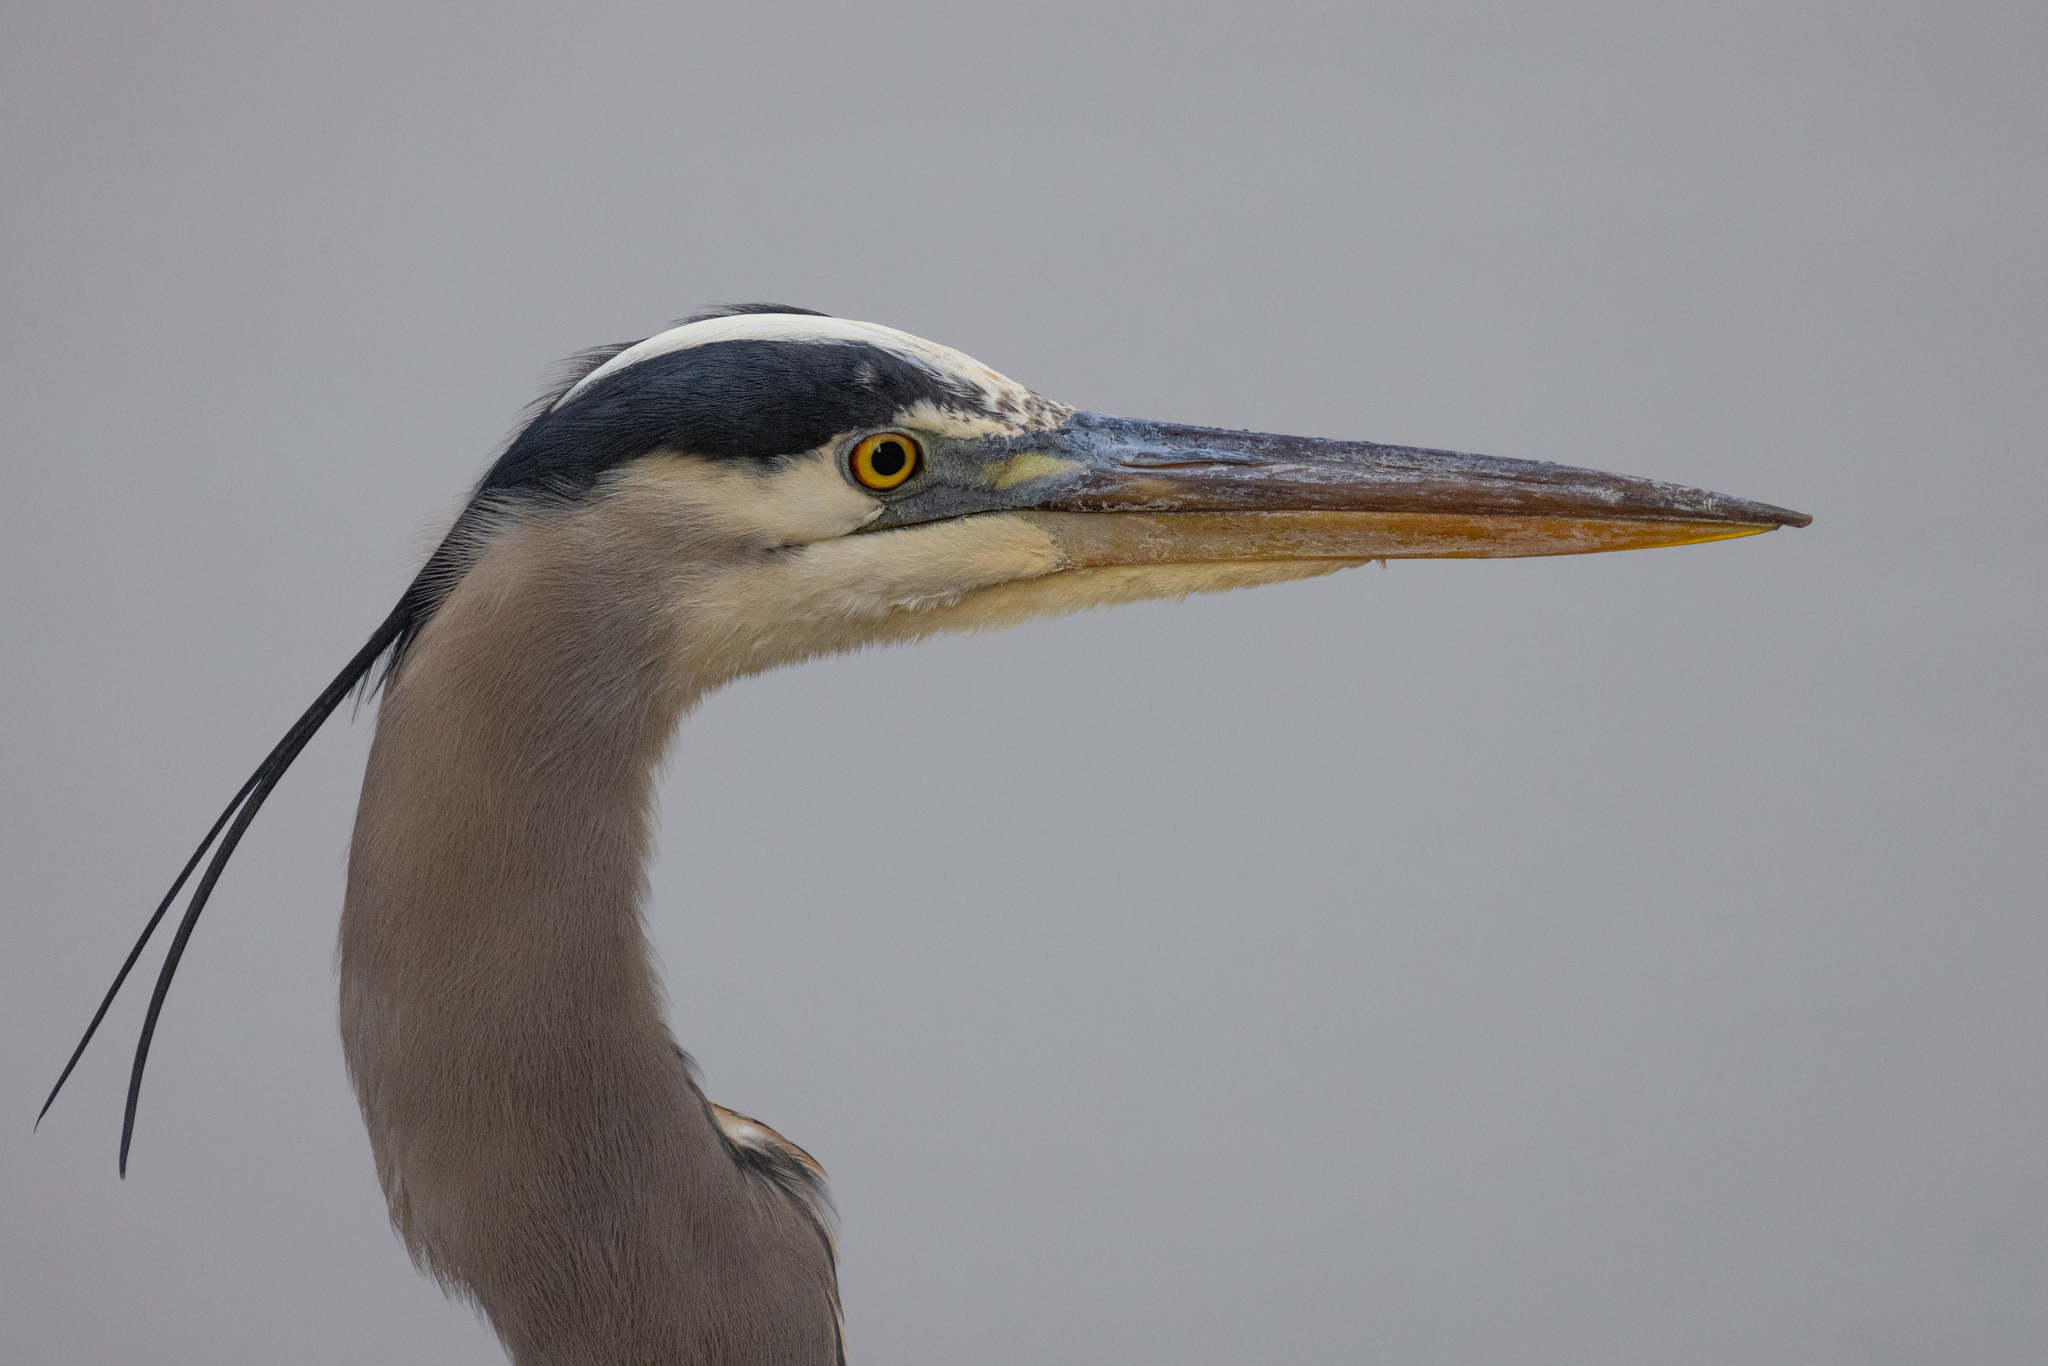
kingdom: Animalia
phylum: Chordata
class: Aves
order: Pelecaniformes
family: Ardeidae
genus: Ardea
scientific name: Ardea herodias
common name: Great blue heron
